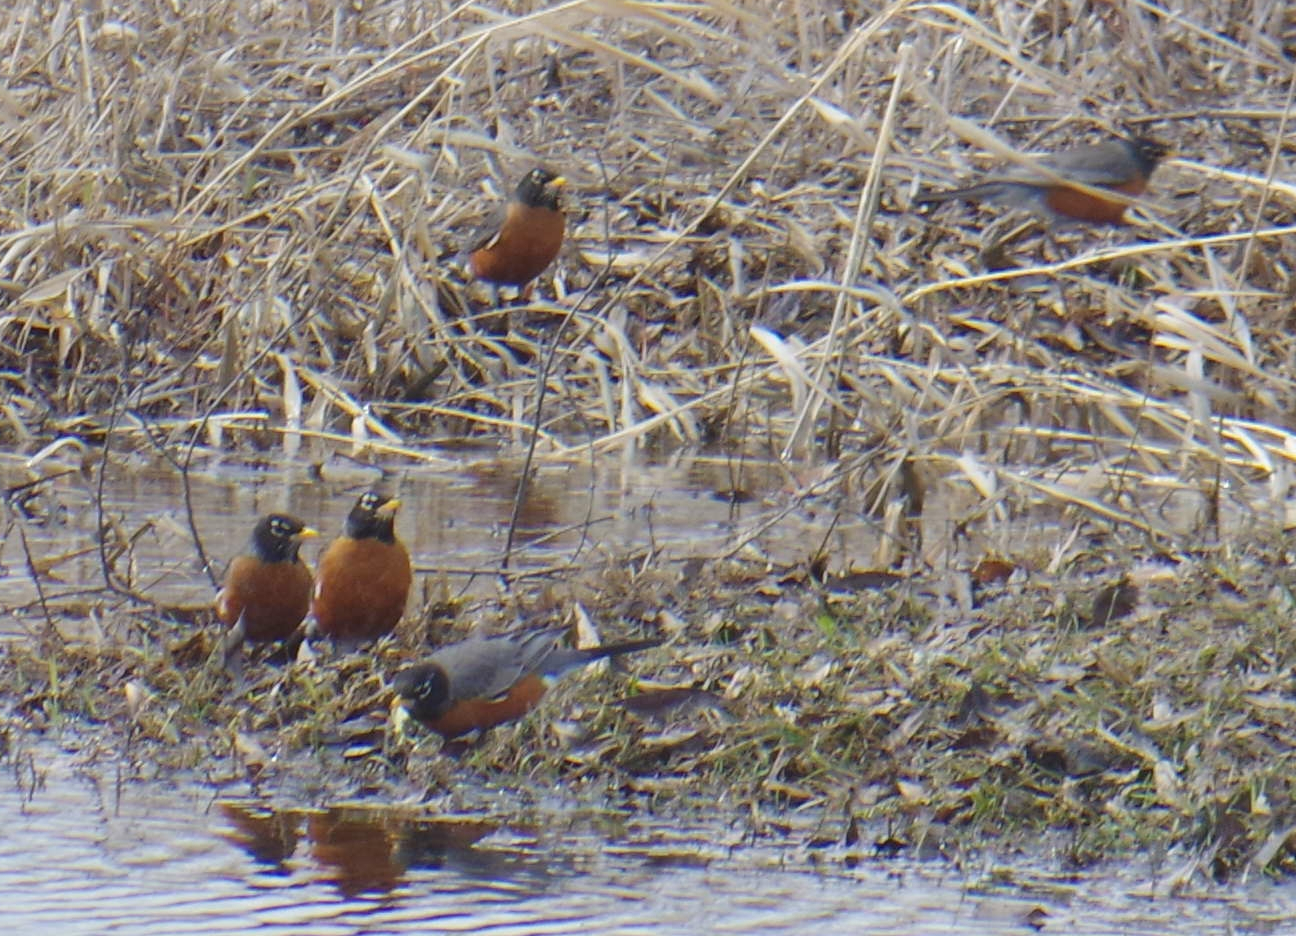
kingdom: Animalia
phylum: Chordata
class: Aves
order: Passeriformes
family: Turdidae
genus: Turdus
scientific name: Turdus migratorius
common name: American robin
